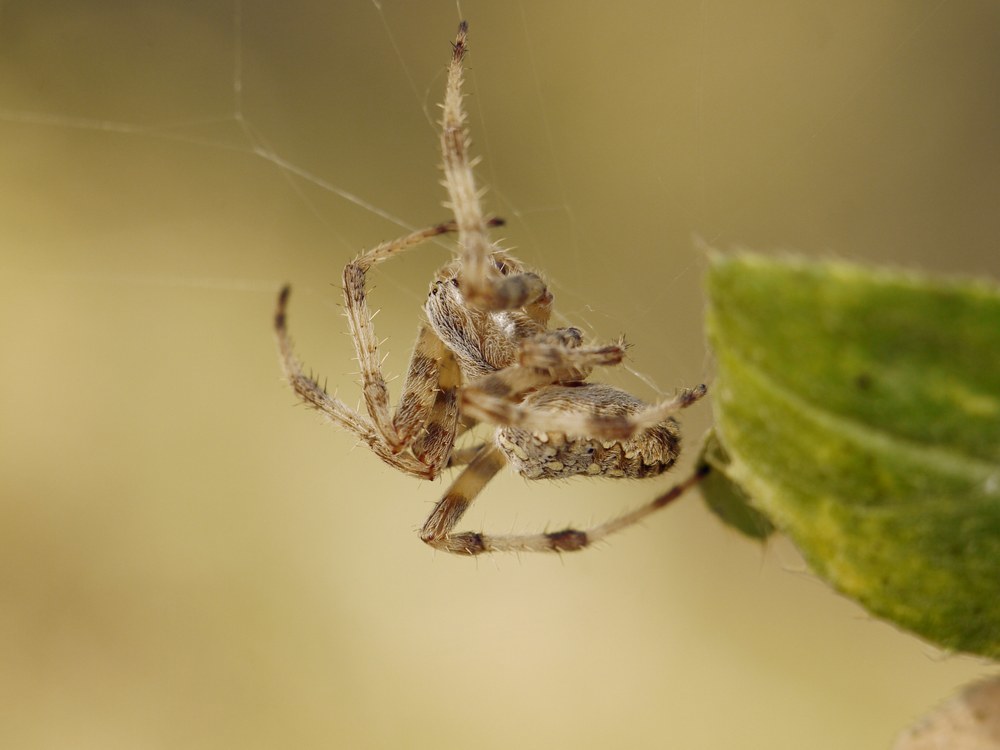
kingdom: Animalia
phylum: Arthropoda
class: Arachnida
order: Araneae
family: Araneidae
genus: Araneus
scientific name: Araneus diadematus
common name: Cross orbweaver
